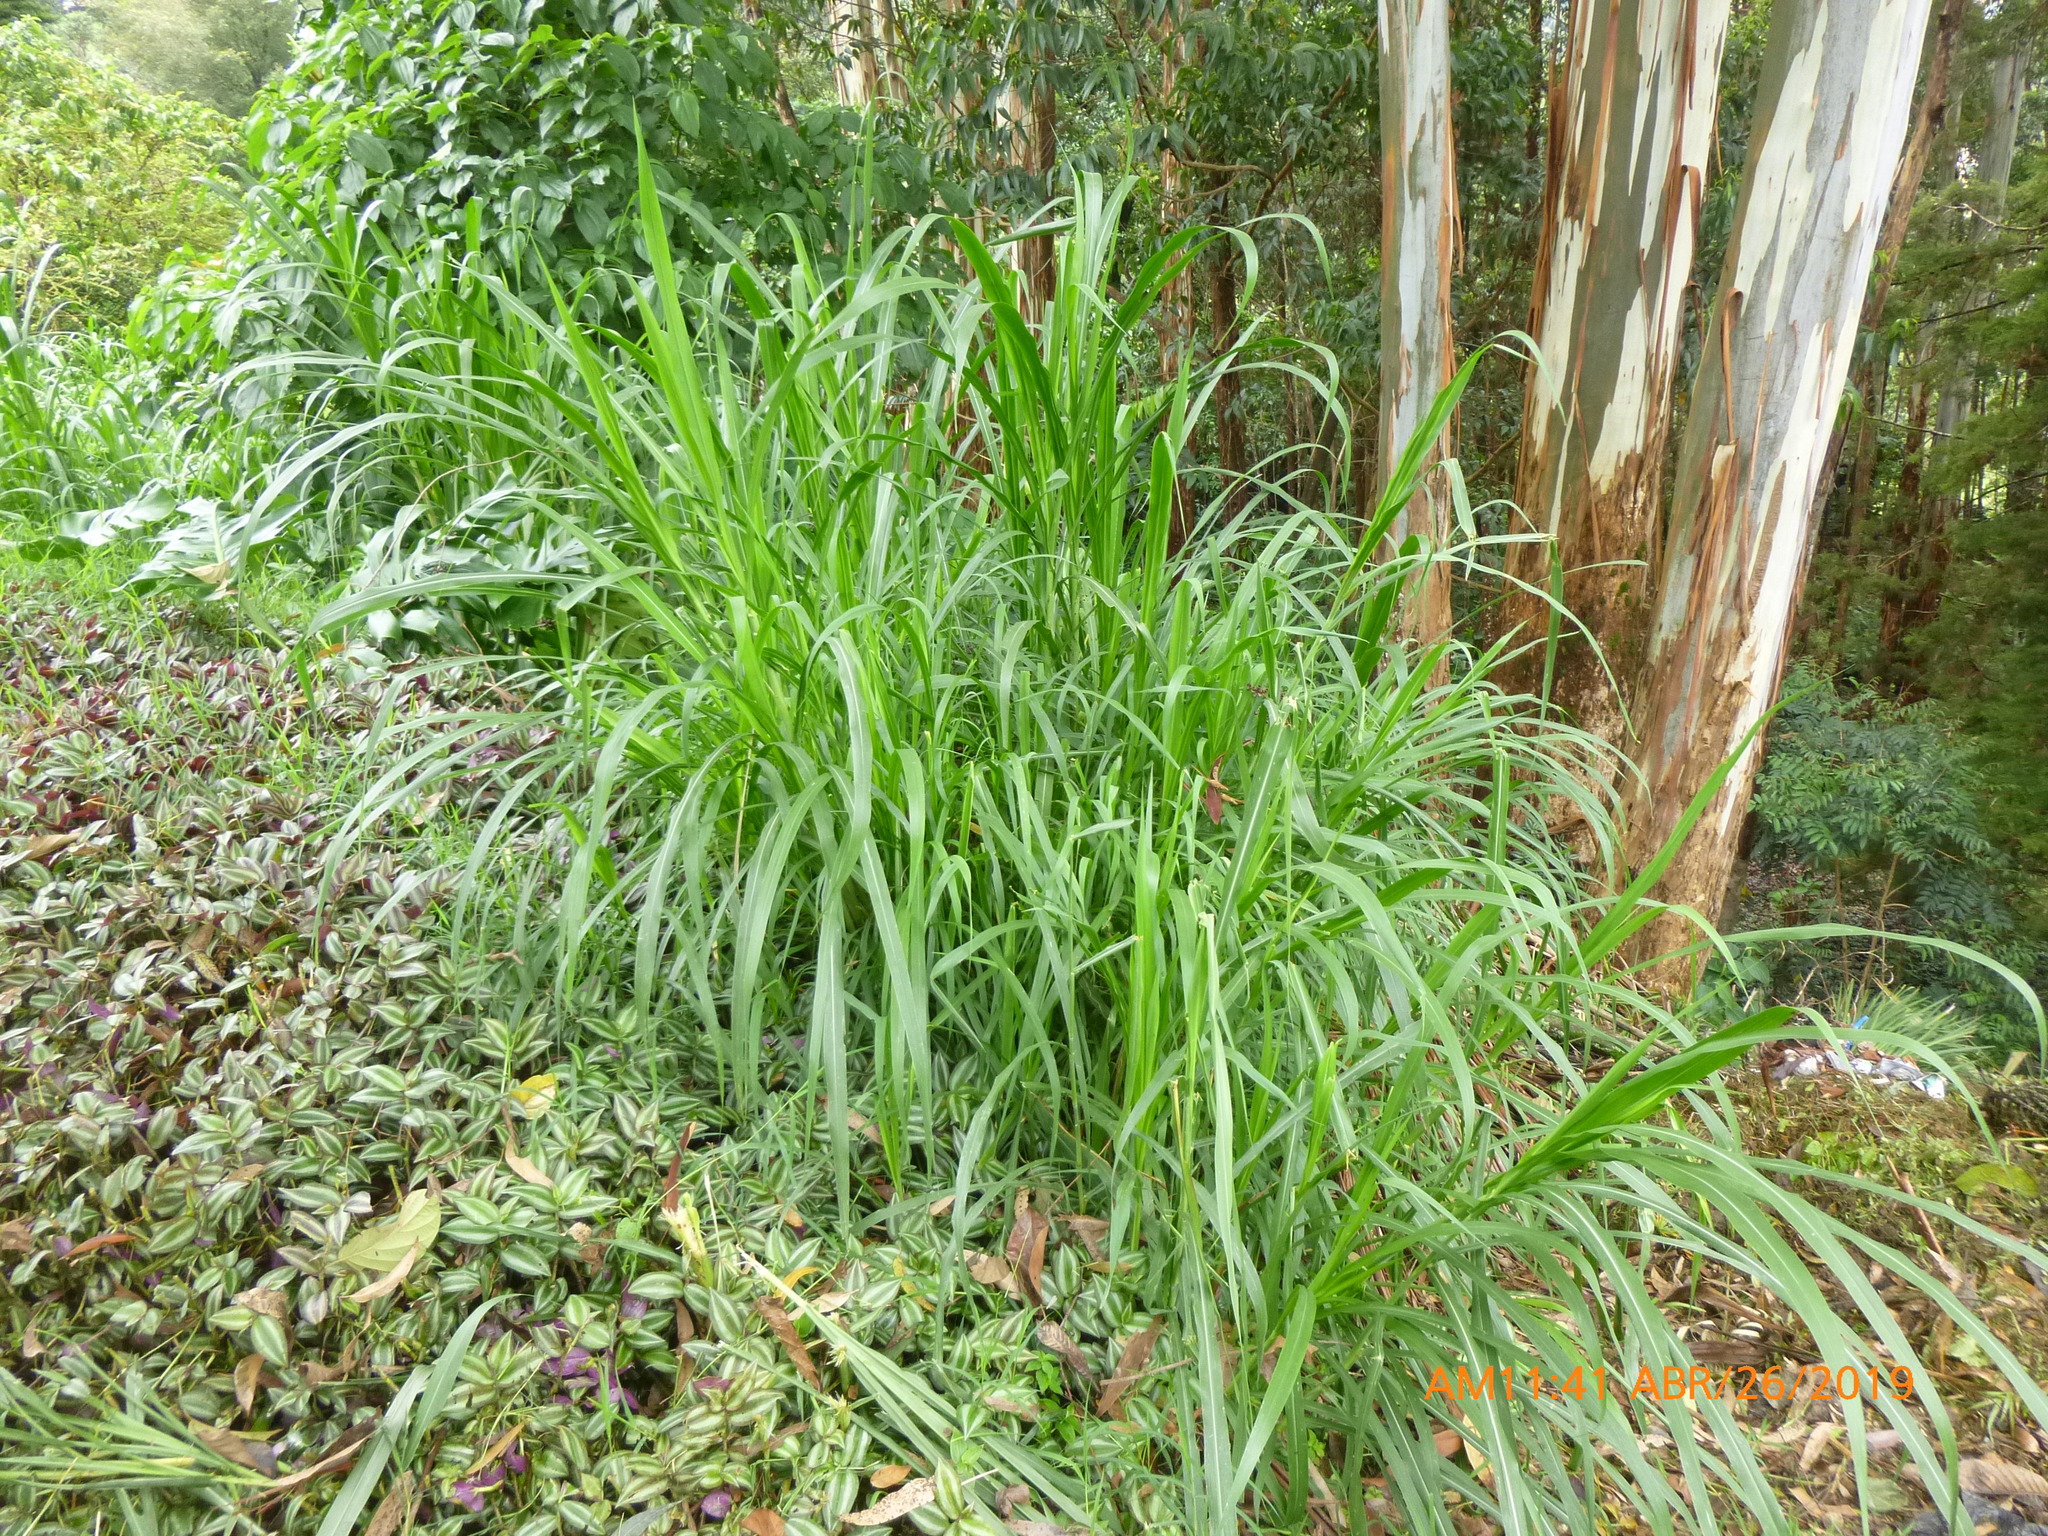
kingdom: Plantae
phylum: Tracheophyta
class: Liliopsida
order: Poales
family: Poaceae
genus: Cenchrus
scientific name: Cenchrus purpureus
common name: Elephant grass
